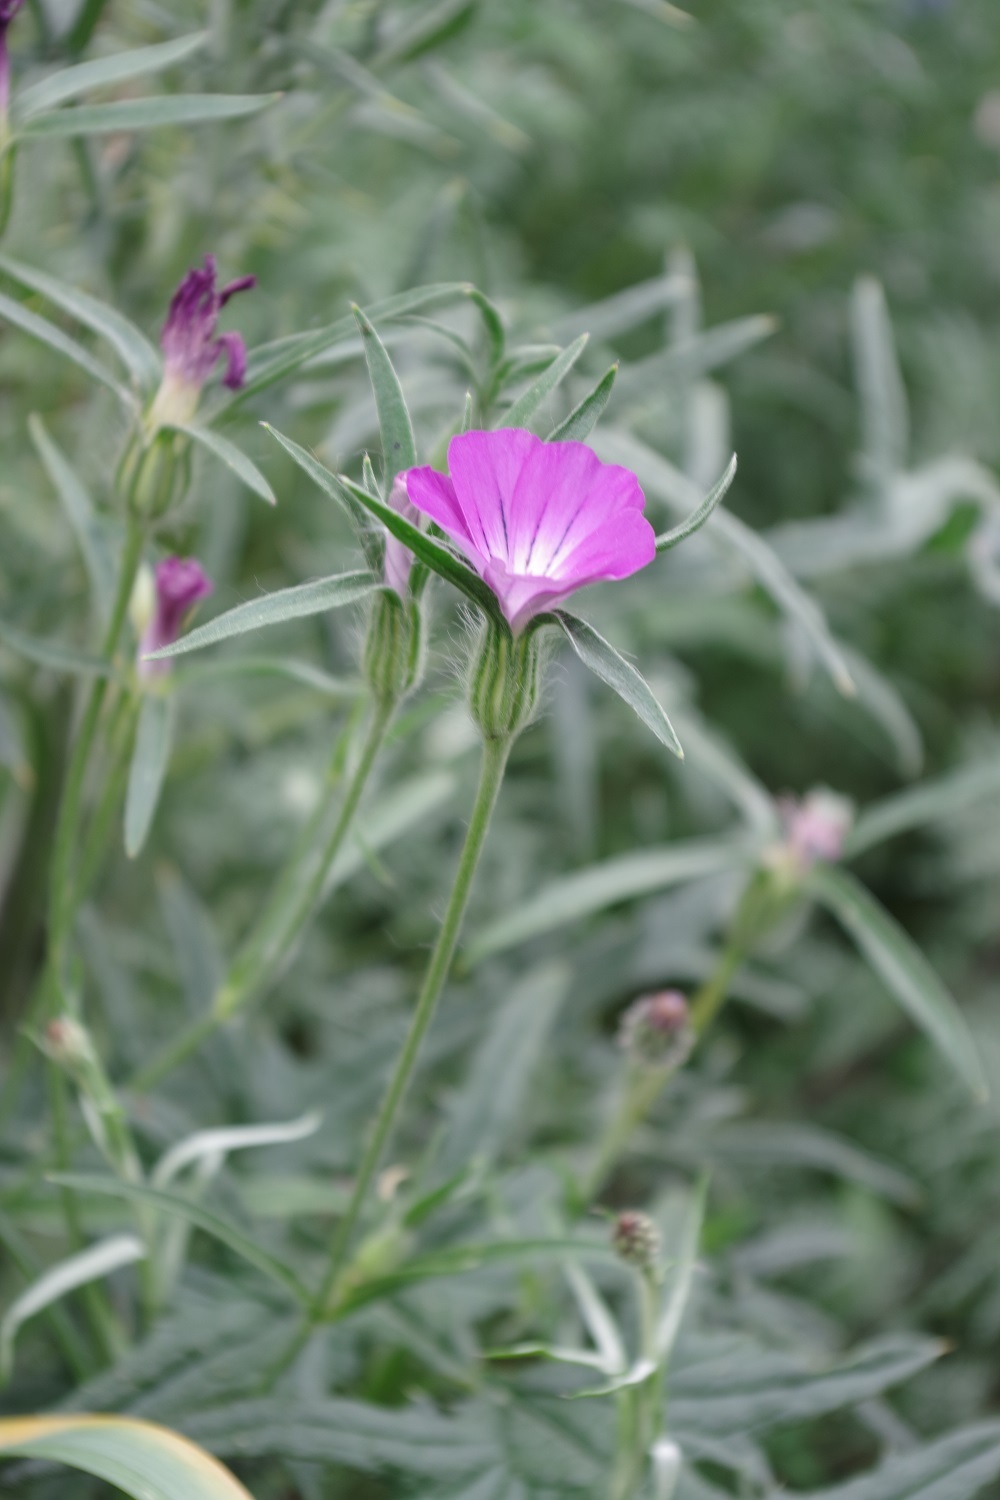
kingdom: Plantae
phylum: Tracheophyta
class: Magnoliopsida
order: Caryophyllales
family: Caryophyllaceae
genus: Agrostemma
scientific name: Agrostemma githago
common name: Common corncockle
